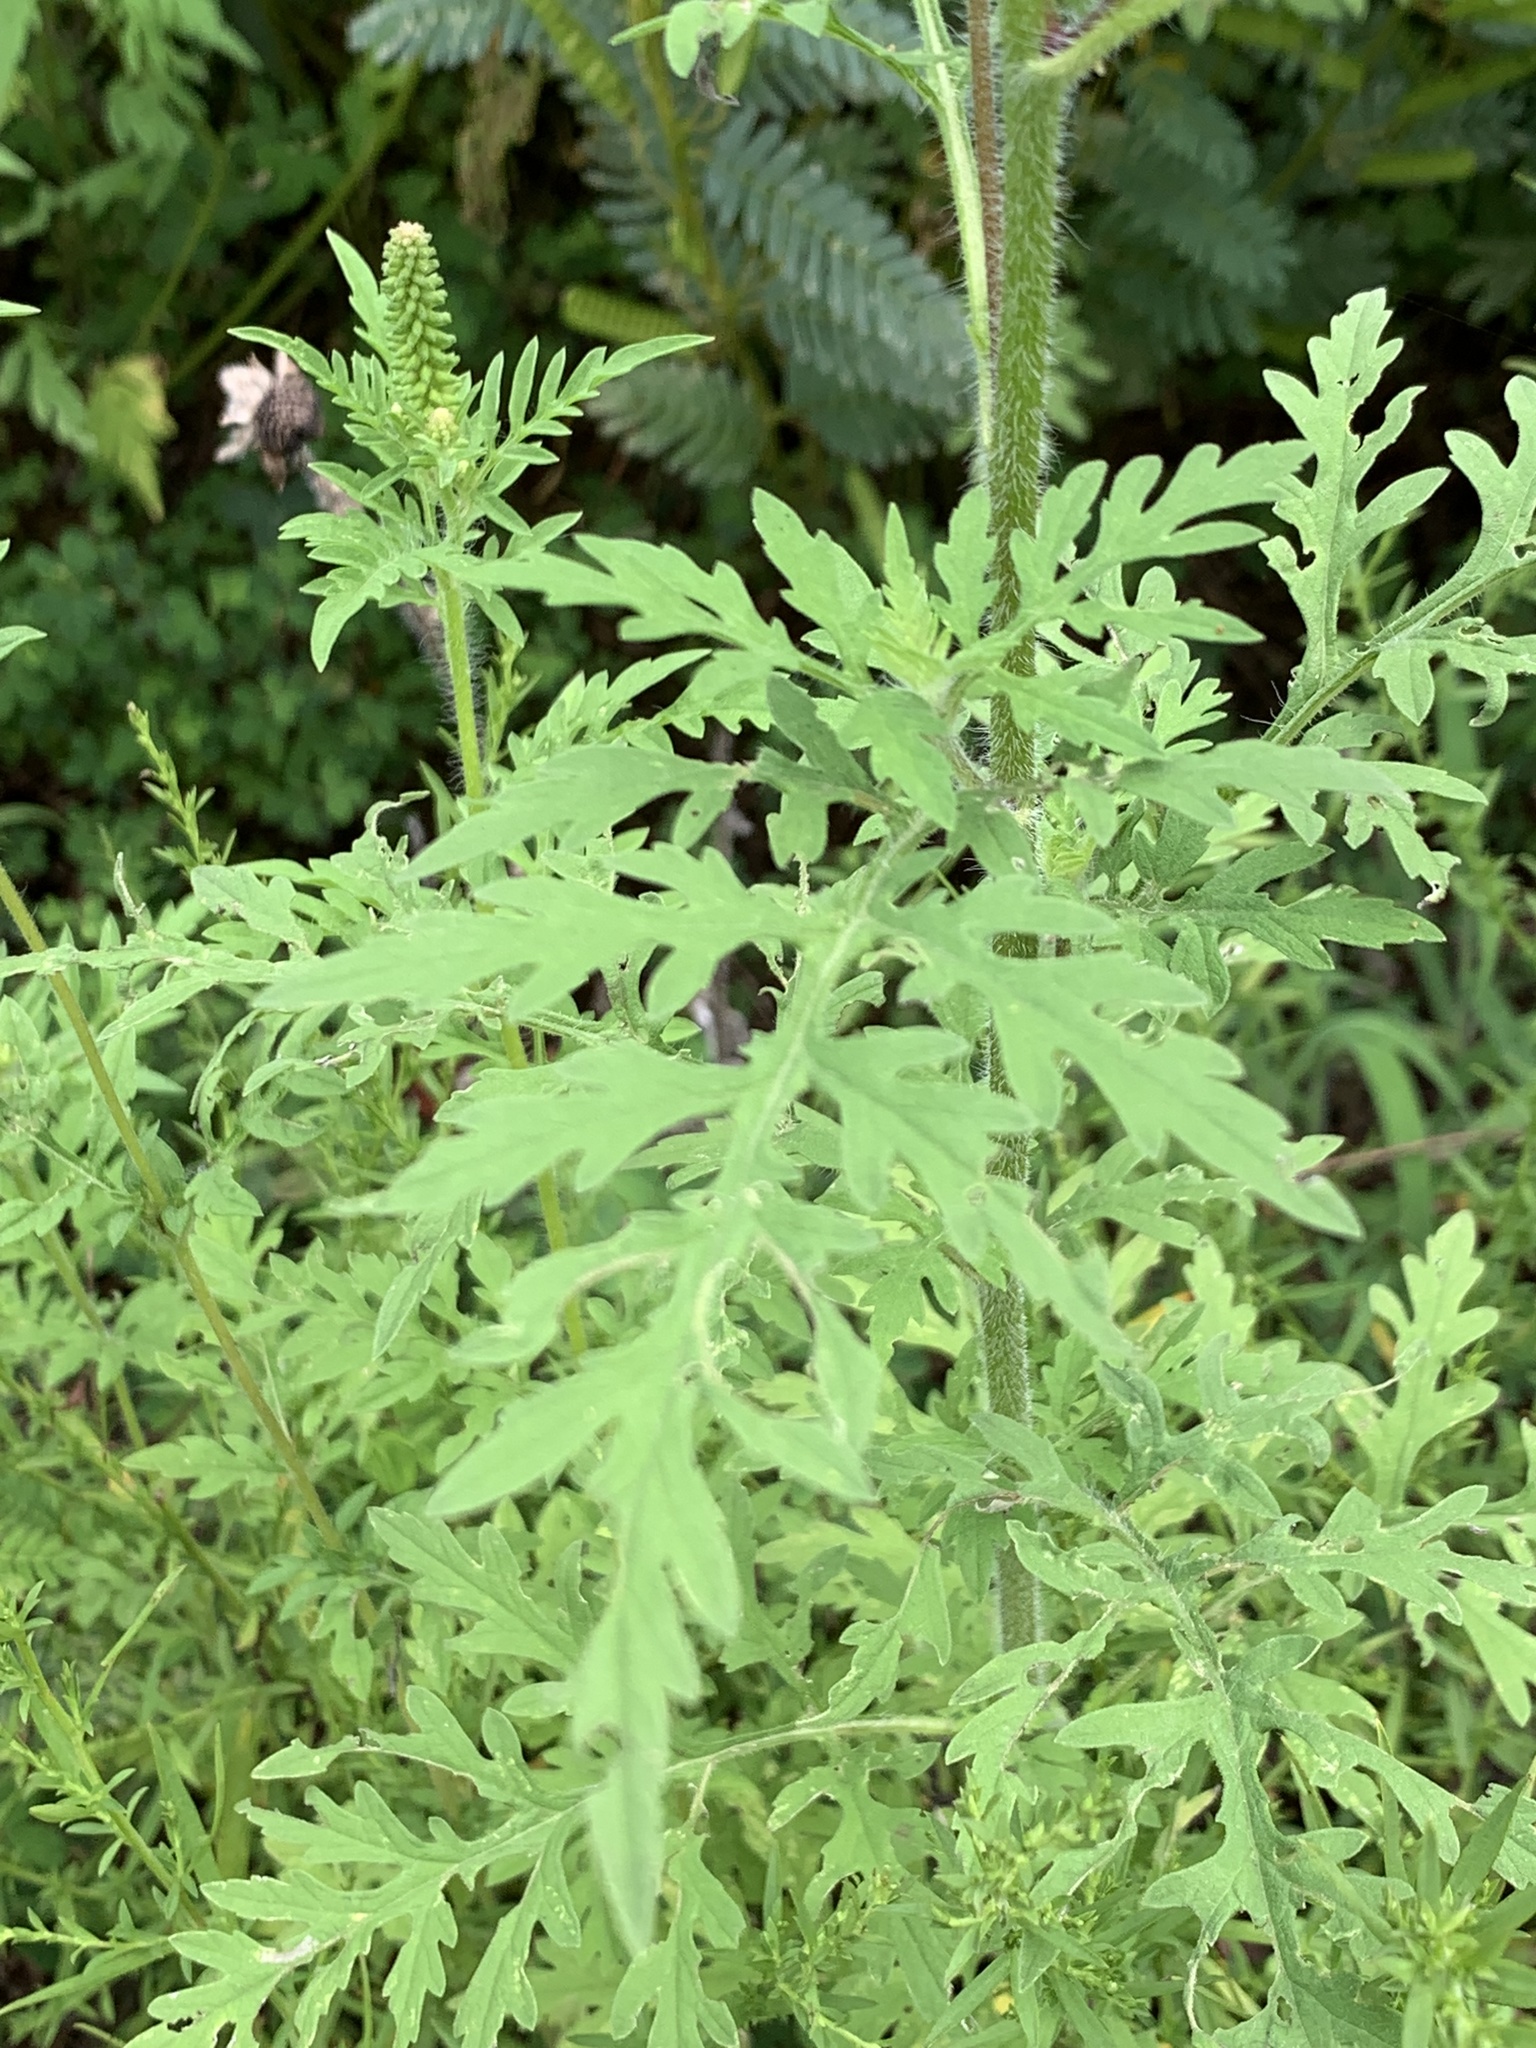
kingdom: Plantae
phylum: Tracheophyta
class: Magnoliopsida
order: Asterales
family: Asteraceae
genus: Ambrosia
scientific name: Ambrosia artemisiifolia
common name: Annual ragweed
